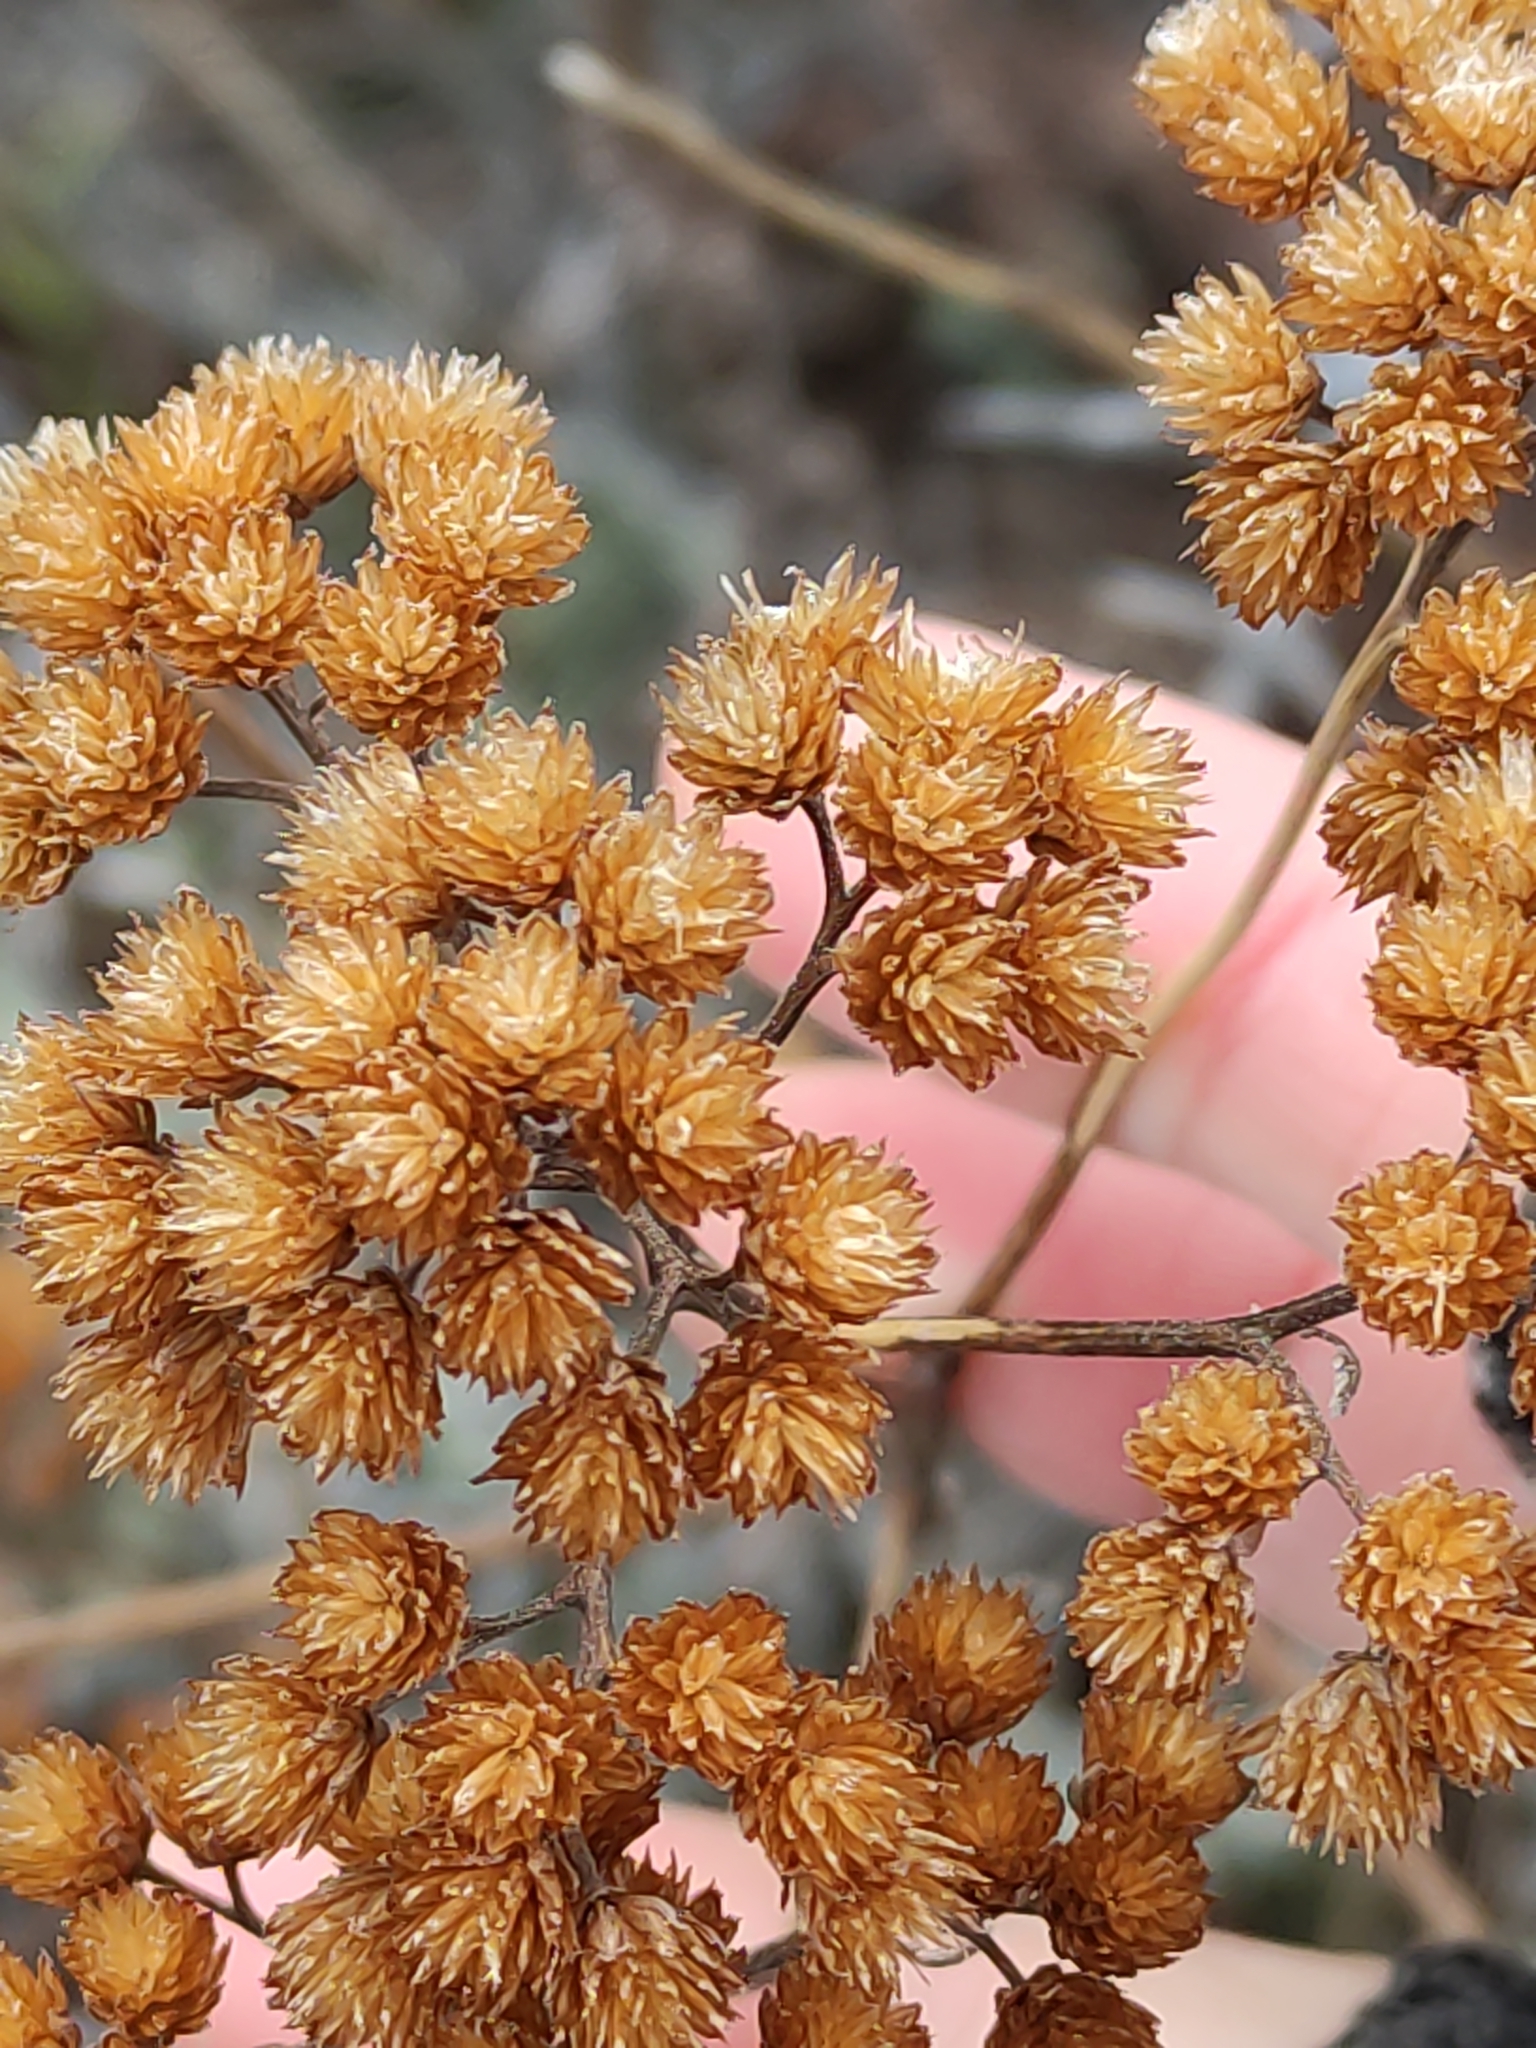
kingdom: Plantae
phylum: Tracheophyta
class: Magnoliopsida
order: Asterales
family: Asteraceae
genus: Achillea
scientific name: Achillea millefolium
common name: Yarrow
